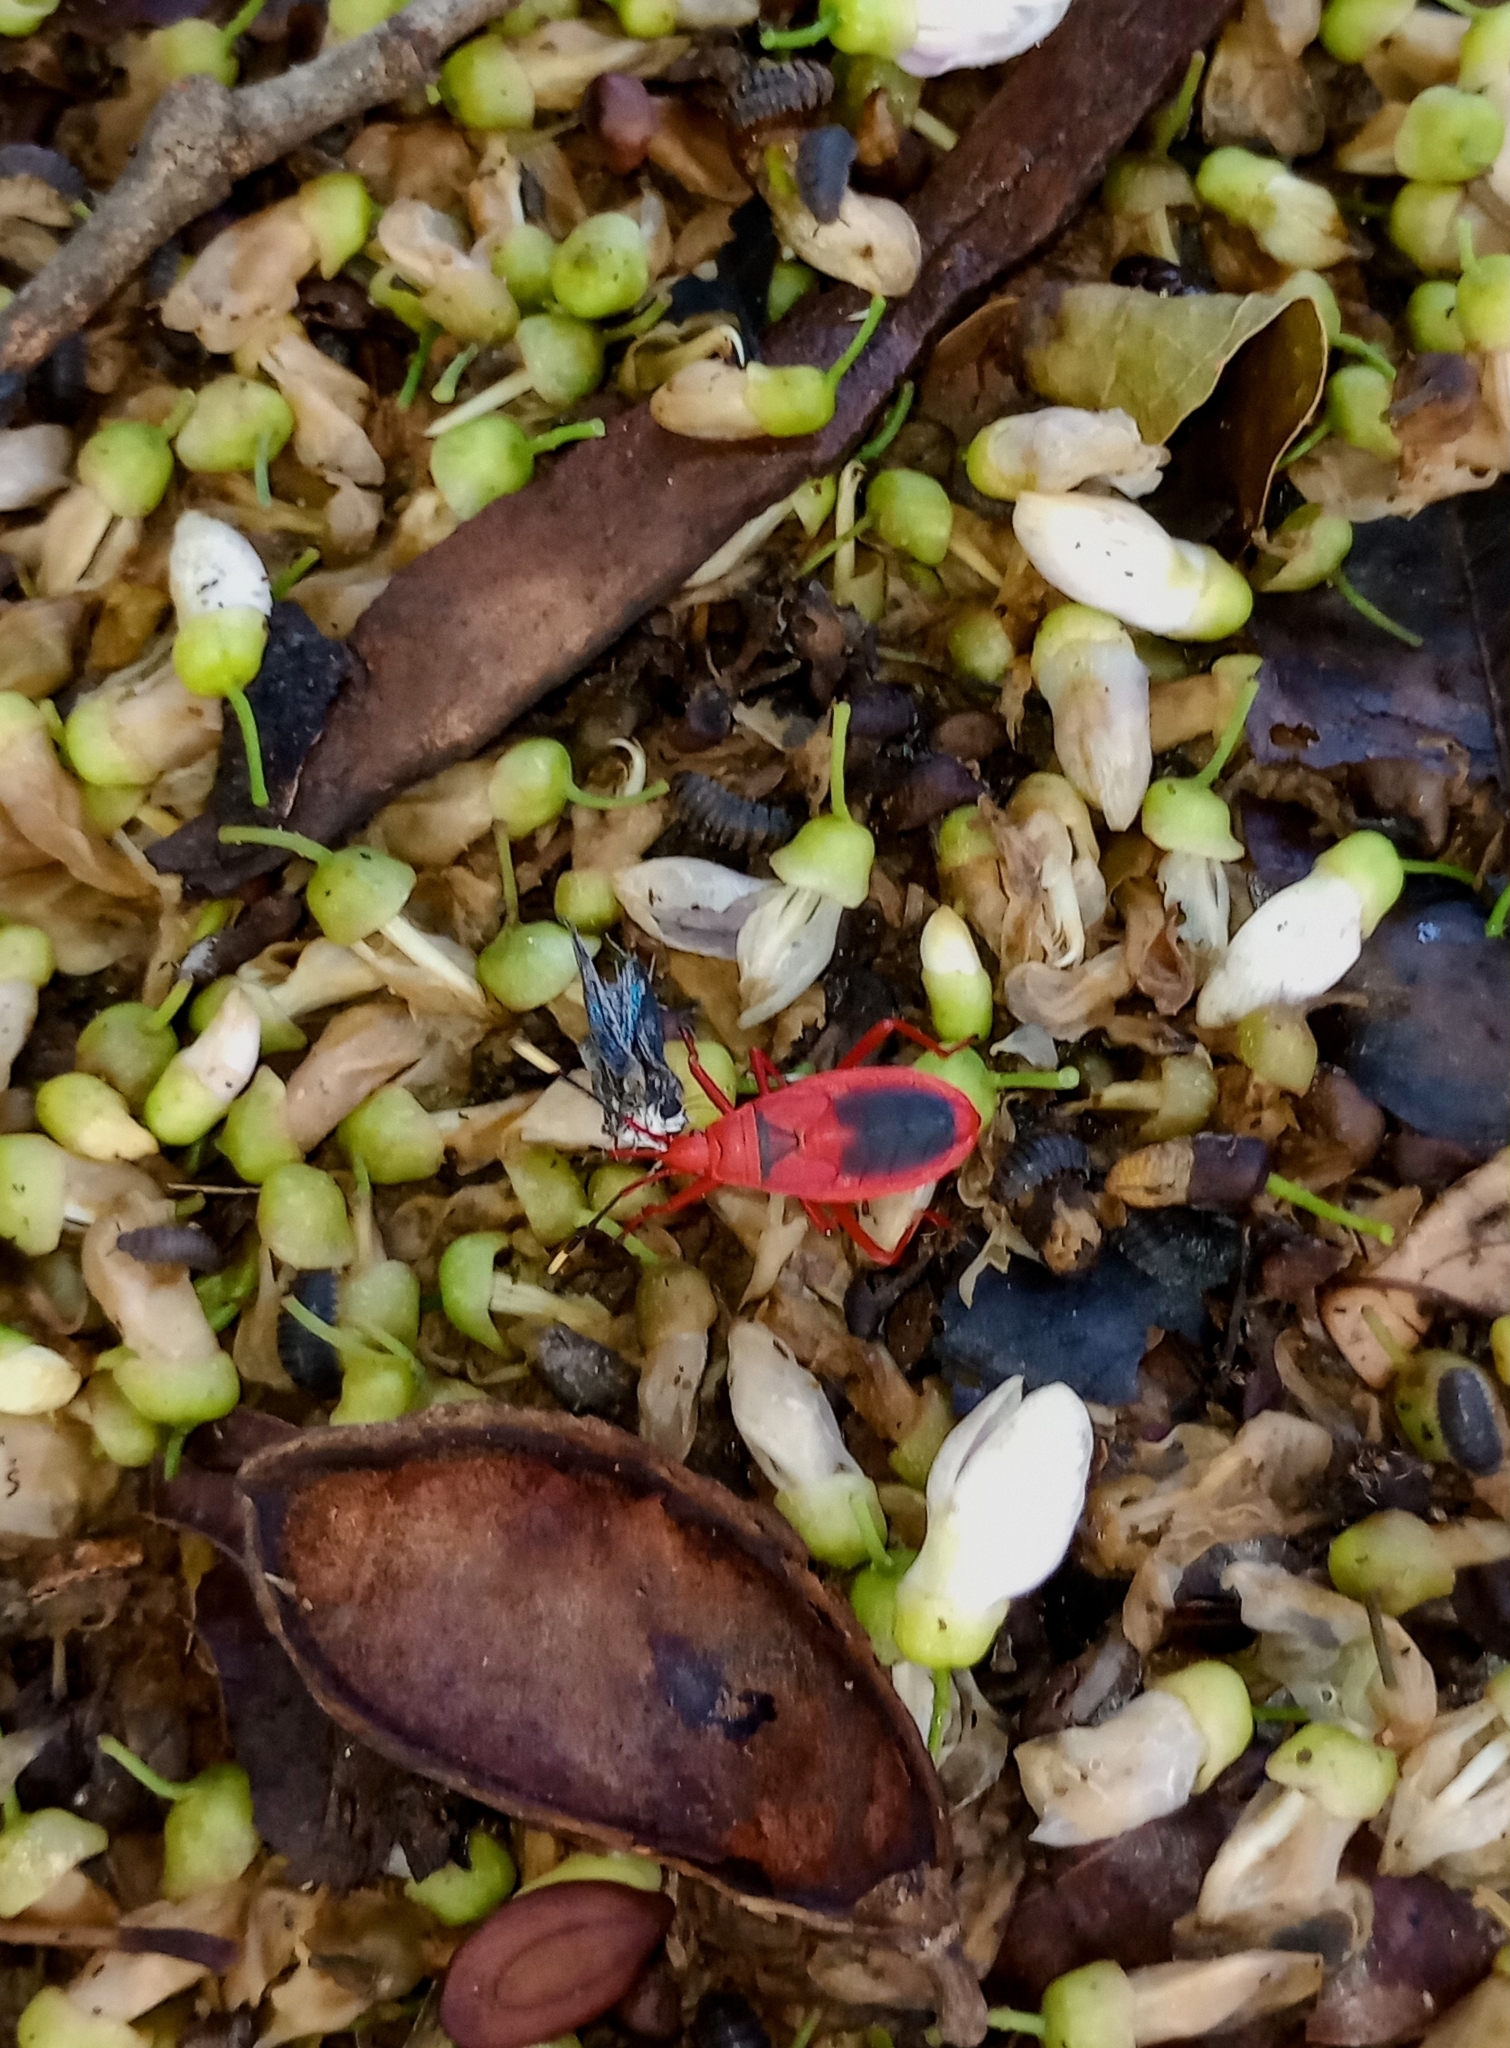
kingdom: Animalia
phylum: Arthropoda
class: Insecta
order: Hemiptera
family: Pyrrhocoridae
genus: Probergrothius
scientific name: Probergrothius
